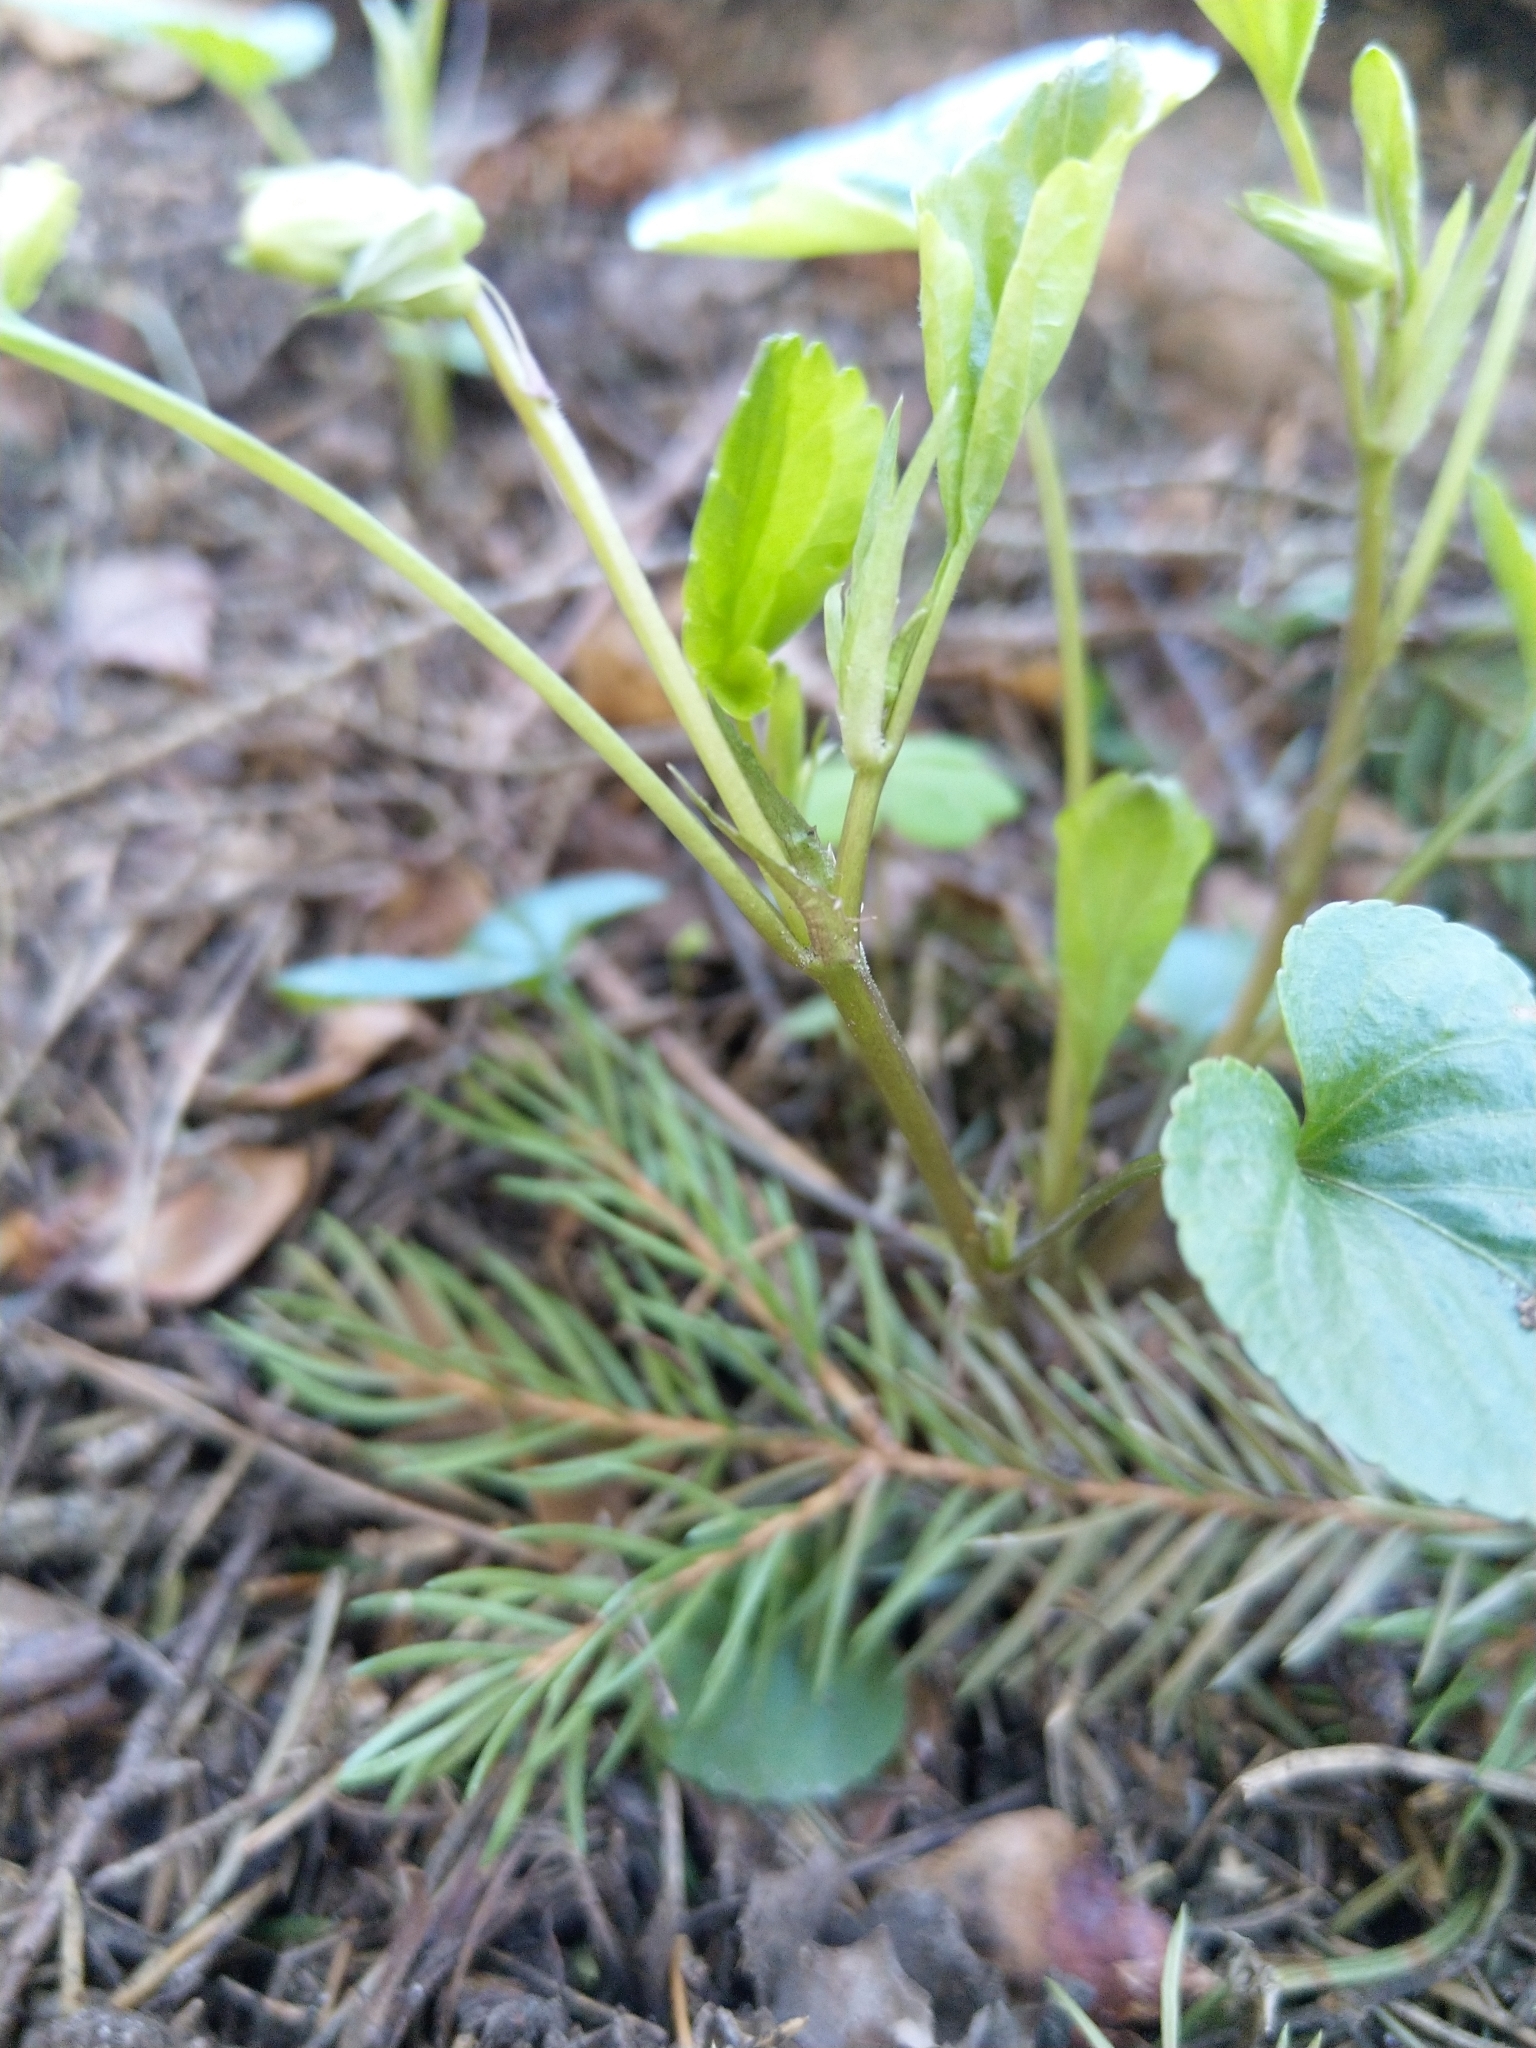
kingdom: Plantae
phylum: Tracheophyta
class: Magnoliopsida
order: Malpighiales
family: Violaceae
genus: Viola
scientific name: Viola riviniana
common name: Common dog-violet
